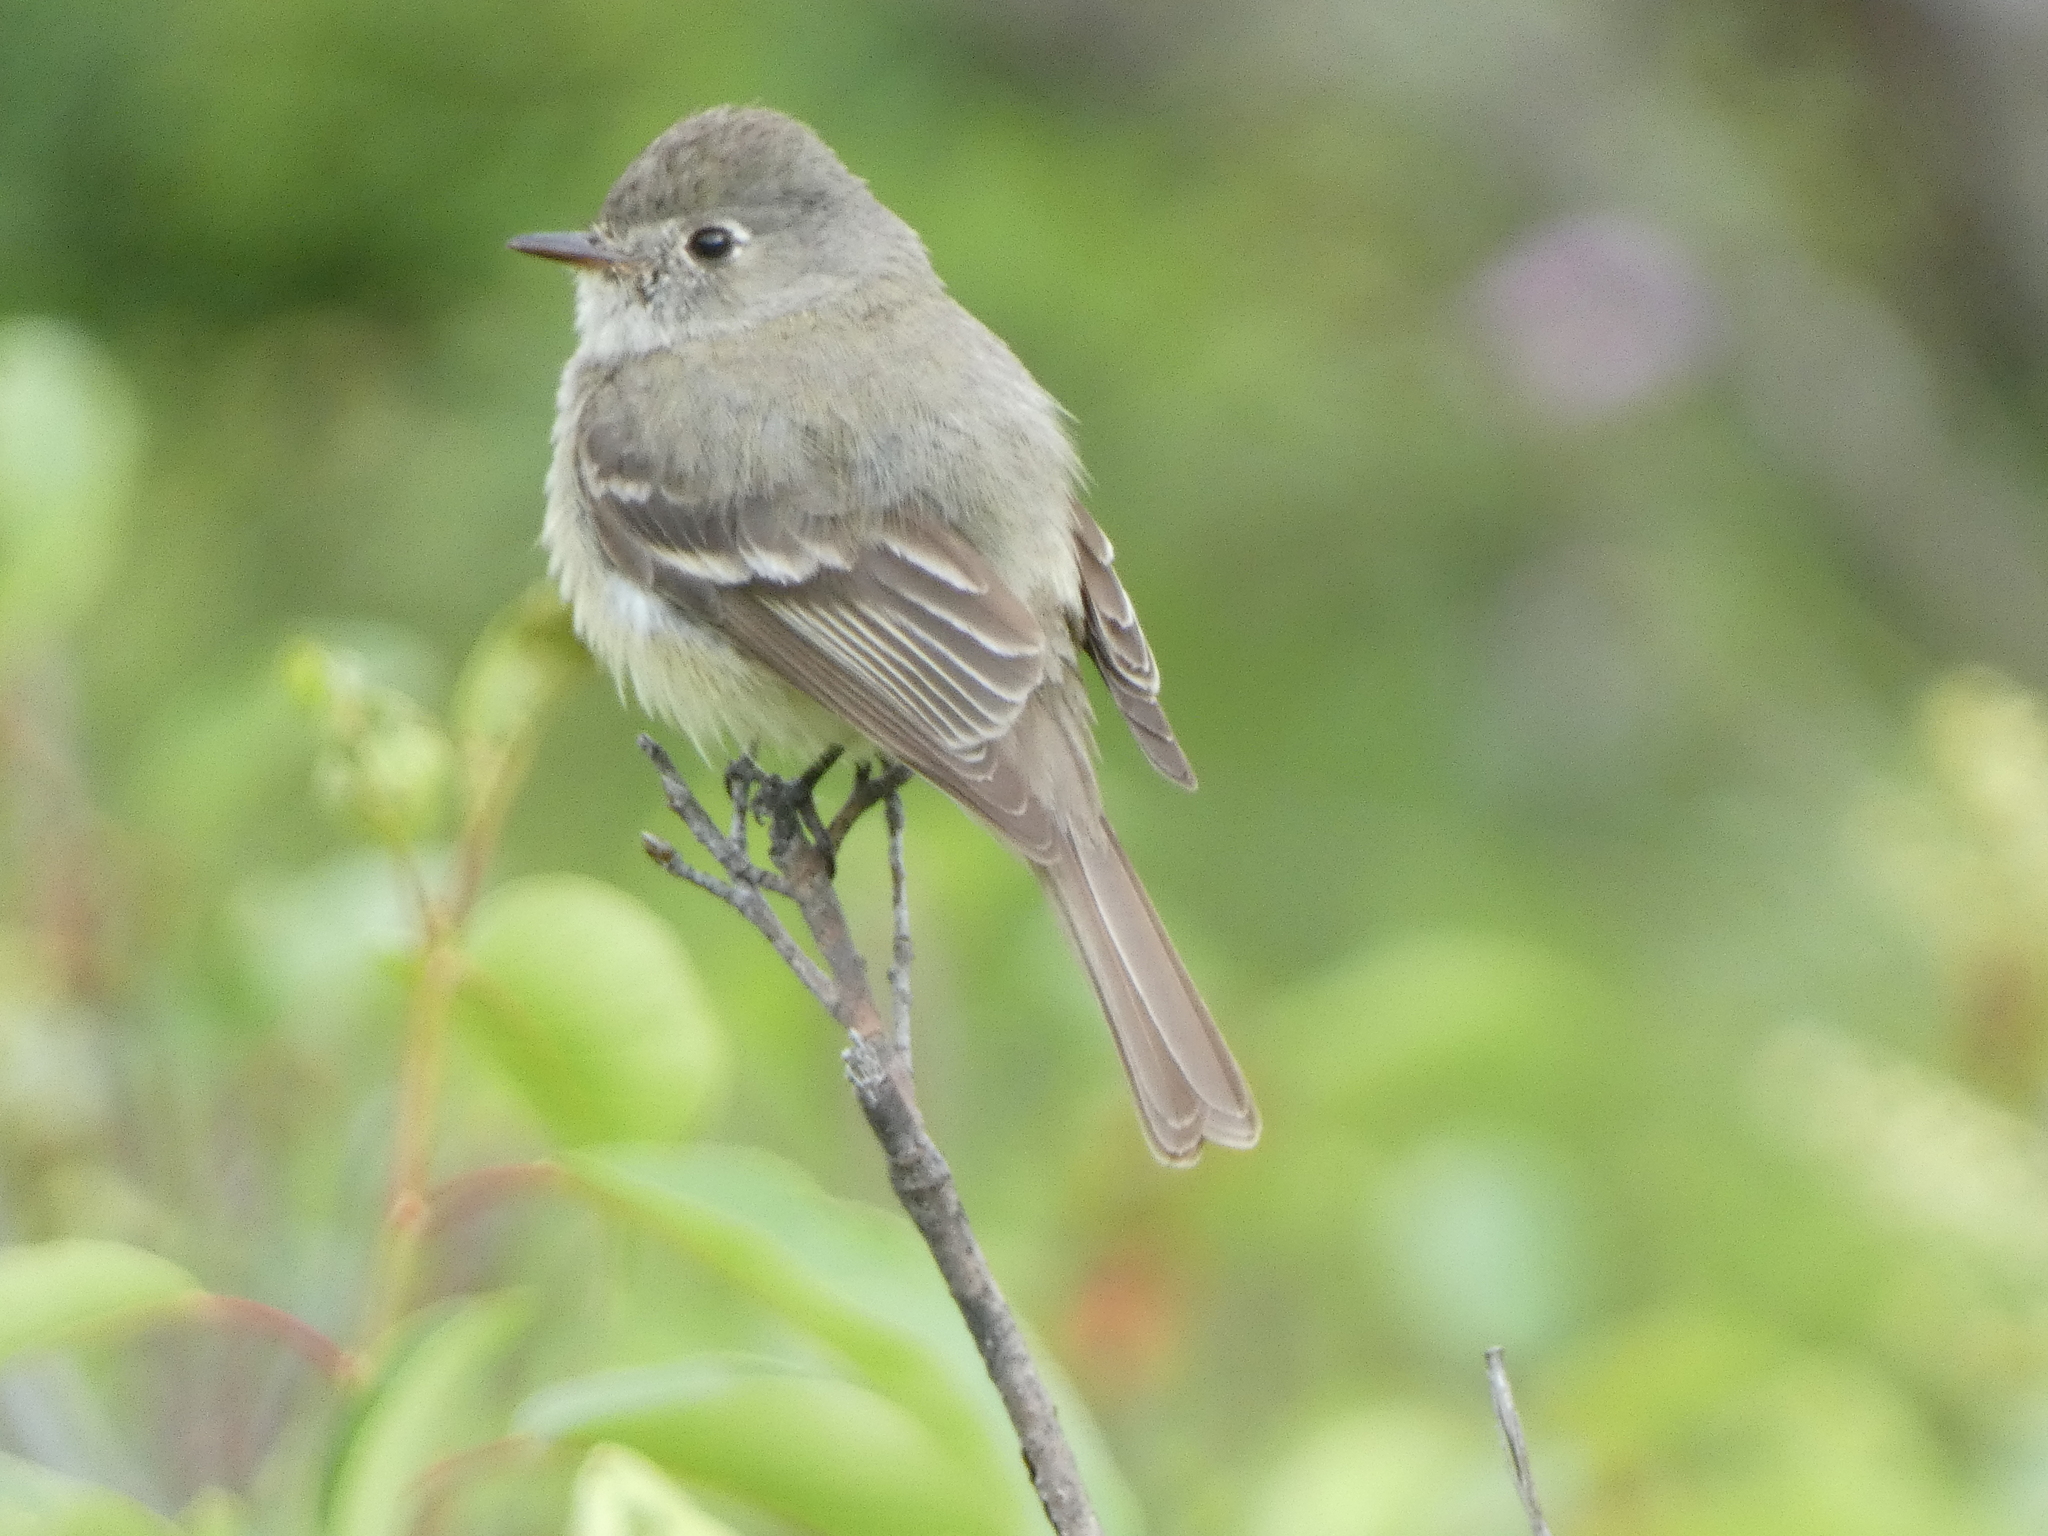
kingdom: Animalia
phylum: Chordata
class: Aves
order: Passeriformes
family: Tyrannidae
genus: Empidonax
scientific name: Empidonax oberholseri
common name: Dusky flycatcher
